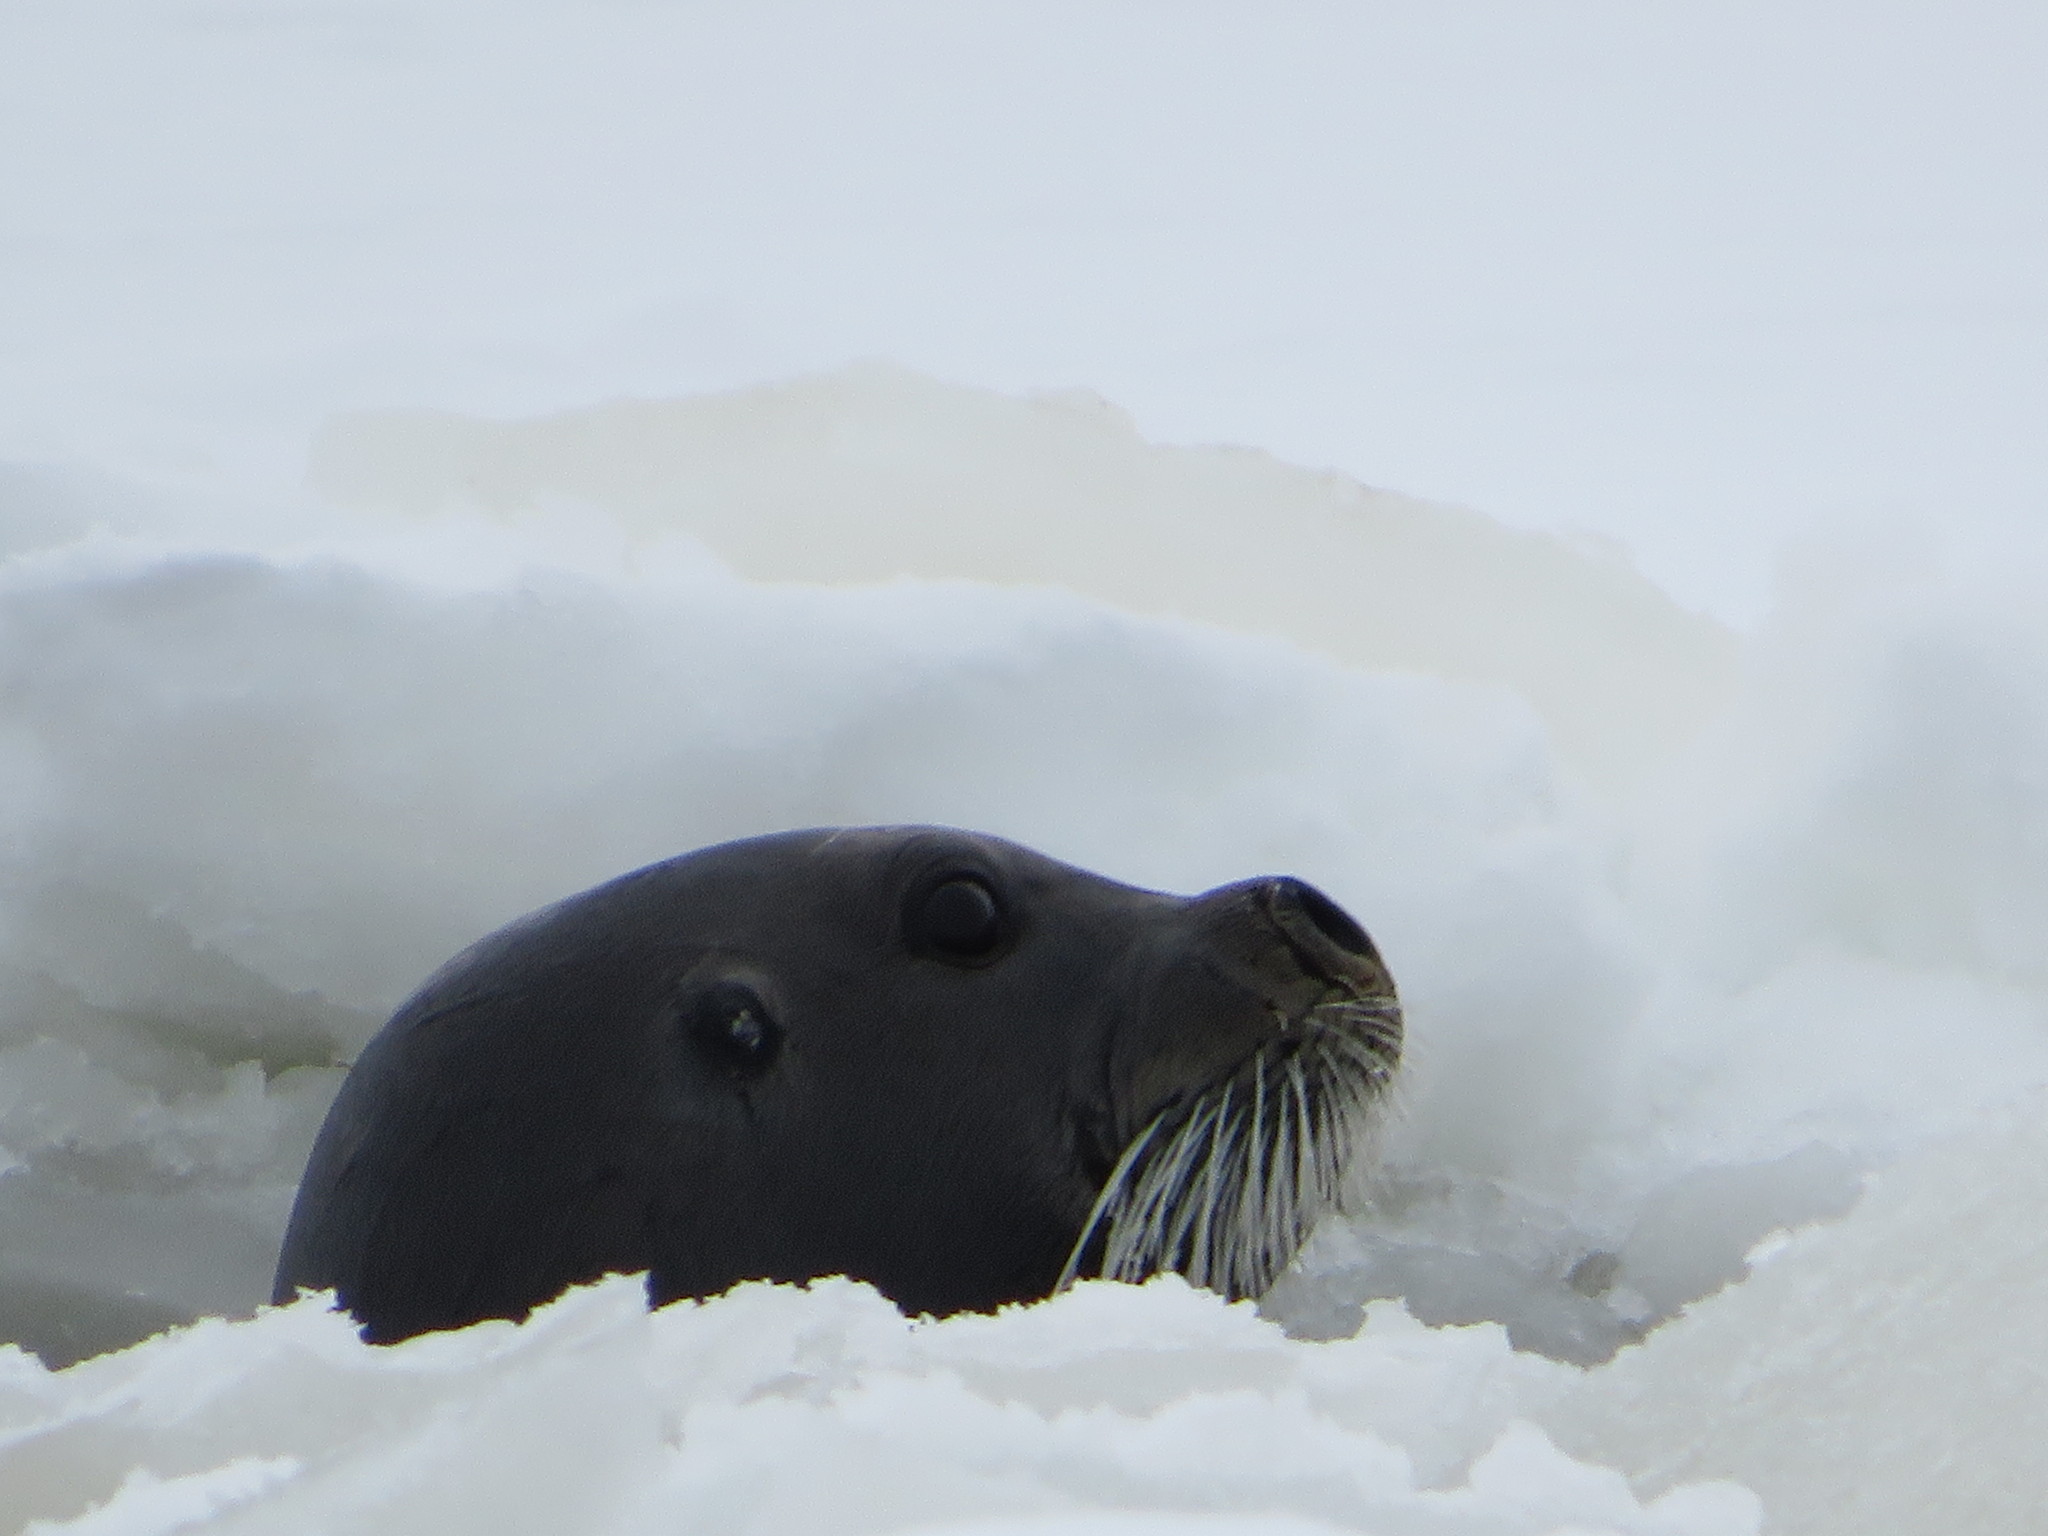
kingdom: Animalia
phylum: Chordata
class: Mammalia
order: Carnivora
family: Phocidae
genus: Erignathus
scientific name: Erignathus barbatus
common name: Bearded seal
